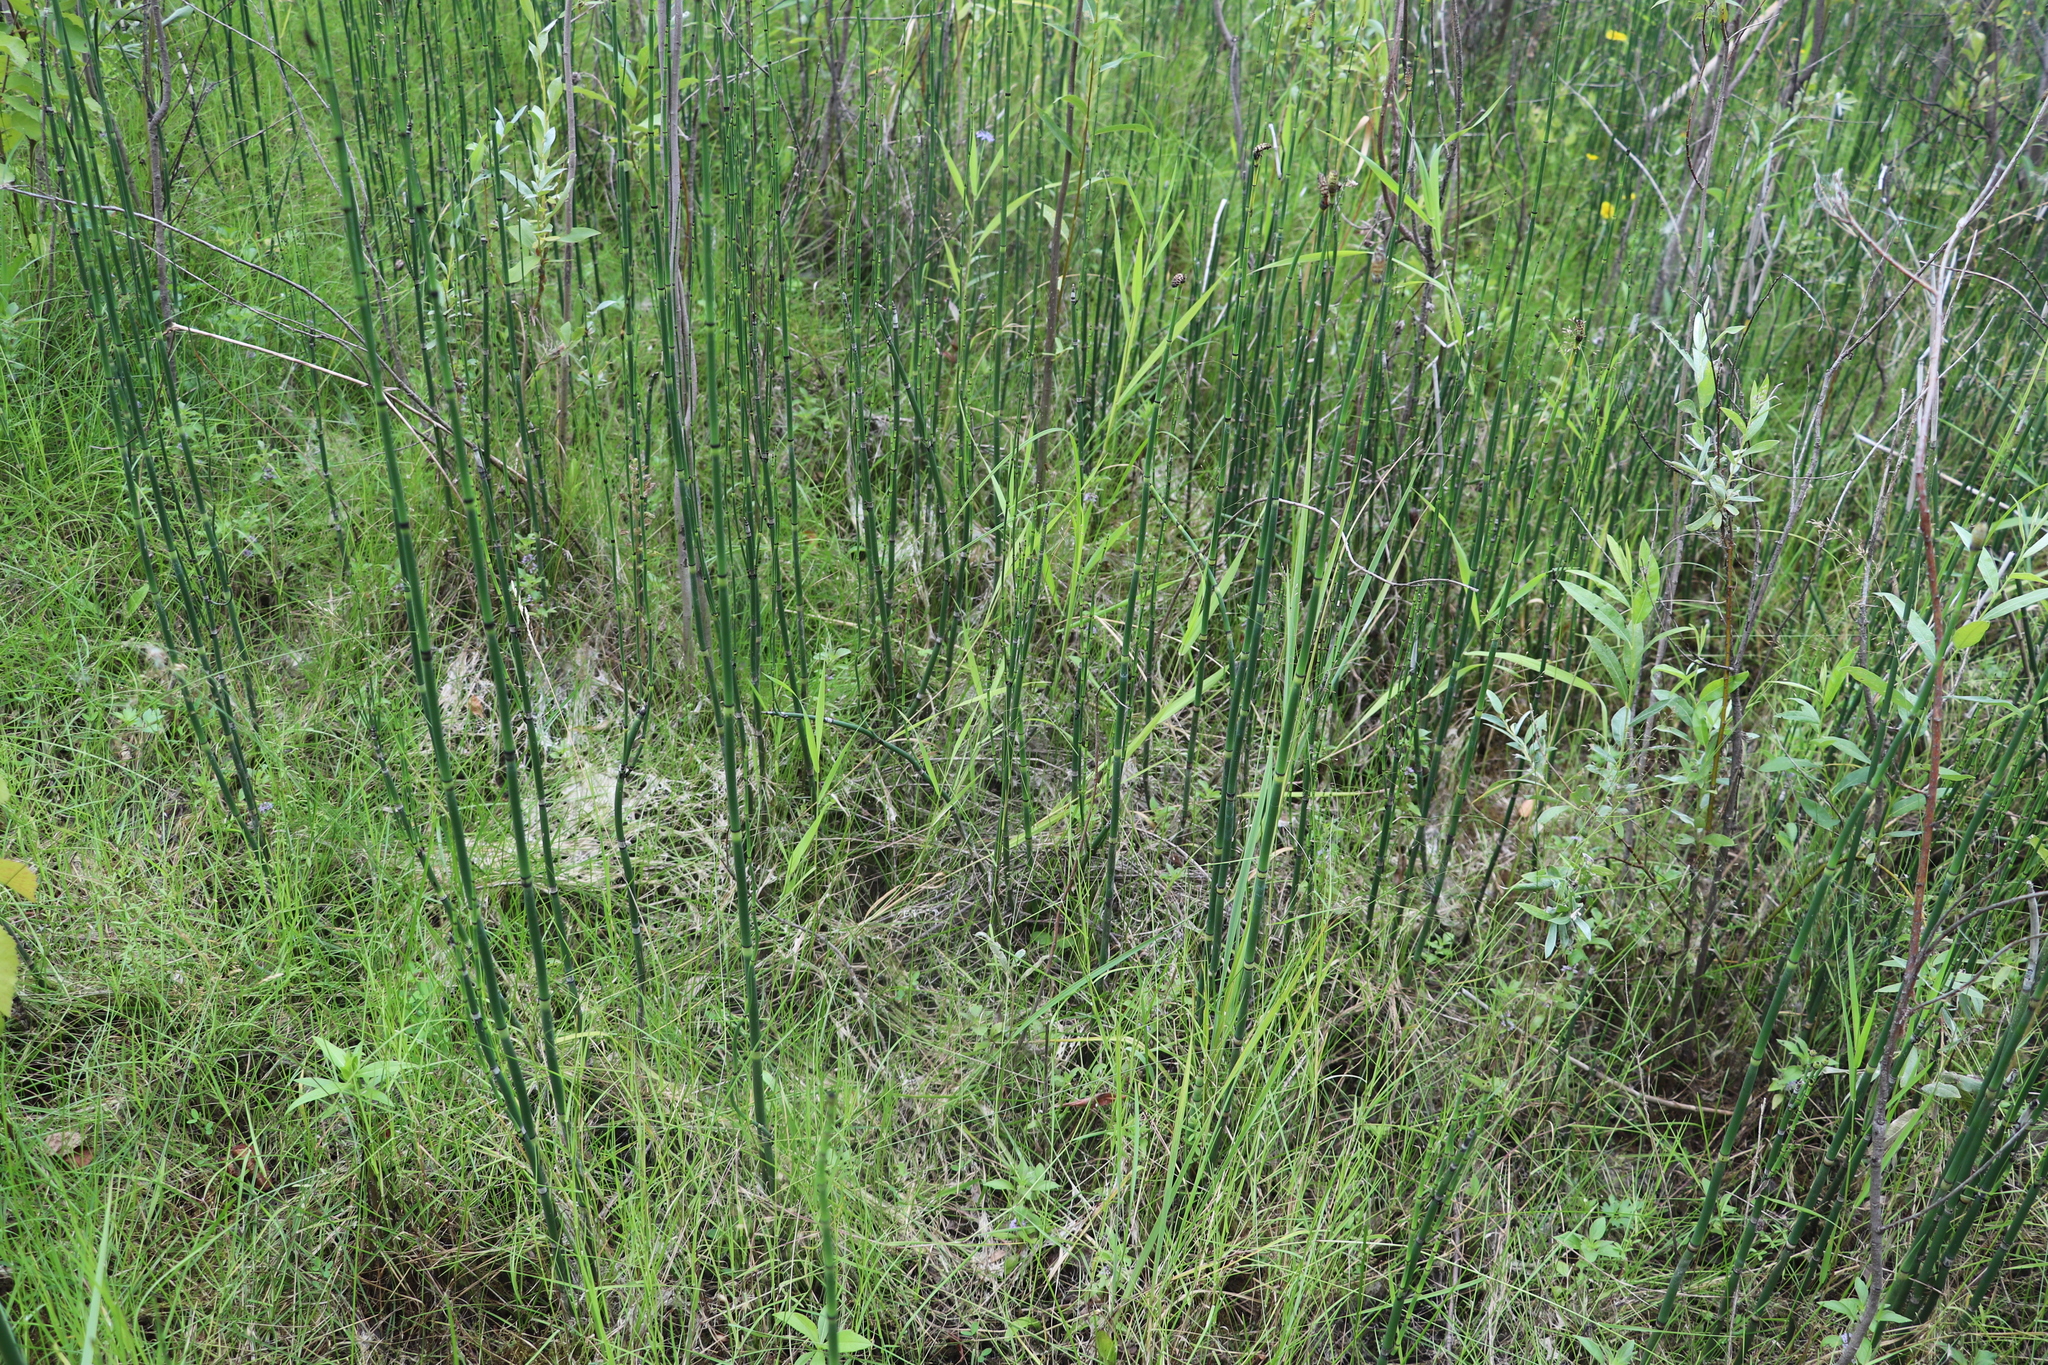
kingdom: Plantae
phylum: Tracheophyta
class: Polypodiopsida
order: Equisetales
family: Equisetaceae
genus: Equisetum
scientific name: Equisetum hyemale
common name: Rough horsetail
